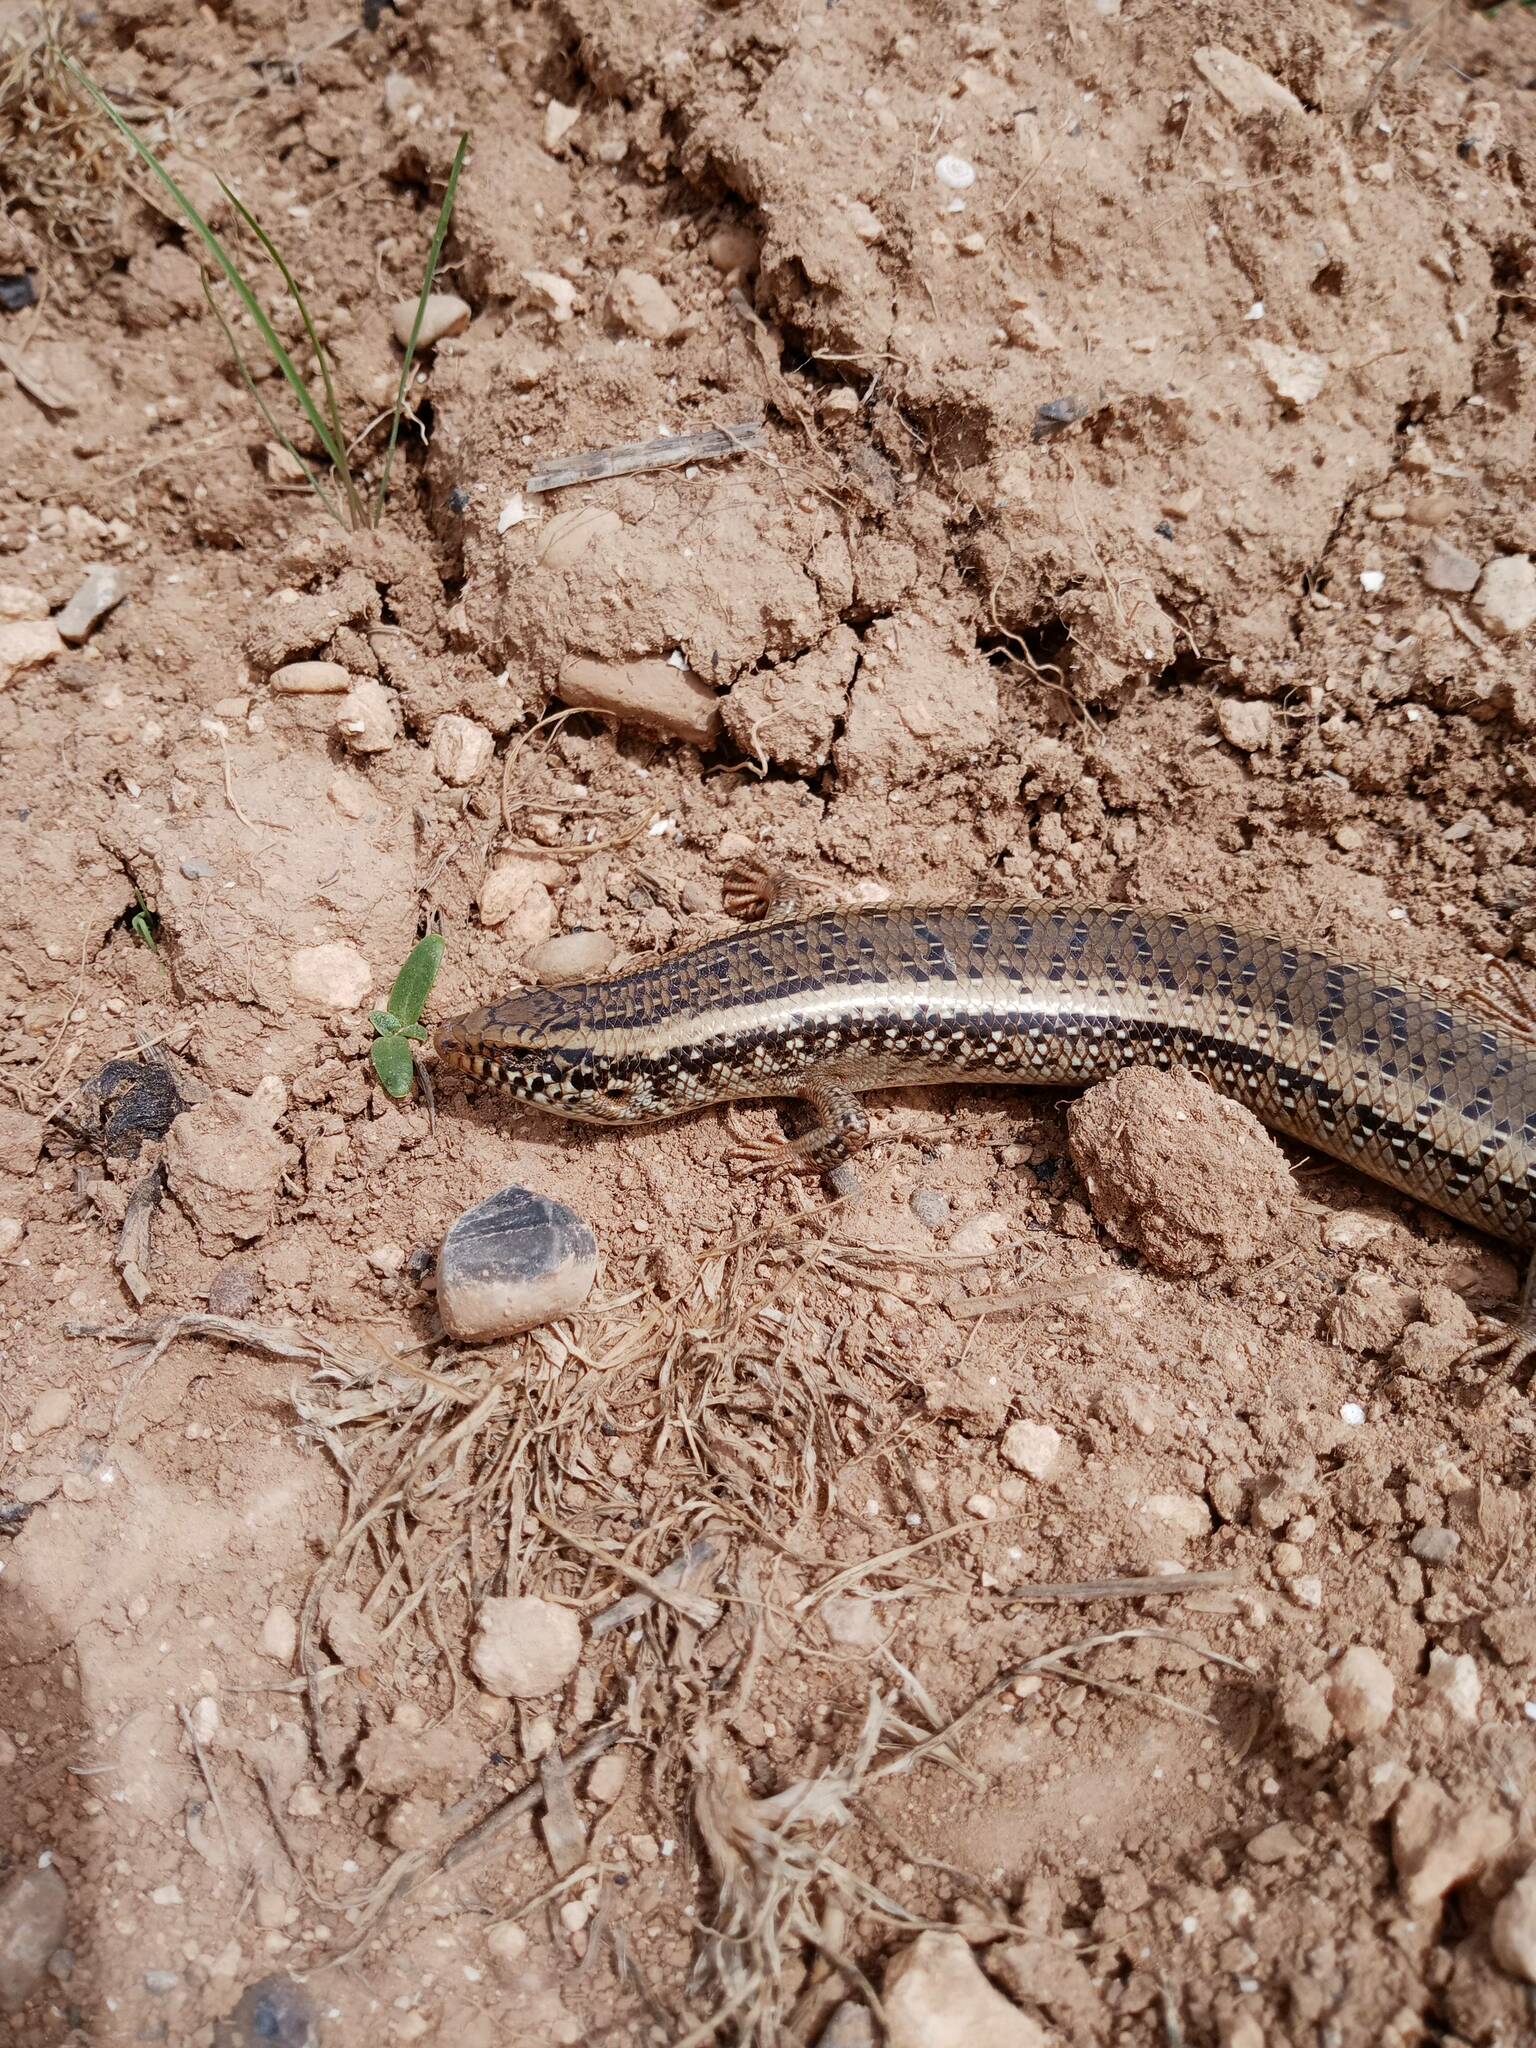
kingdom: Animalia
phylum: Chordata
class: Squamata
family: Scincidae
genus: Chalcides
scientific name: Chalcides ocellatus
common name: Ocellated skink
